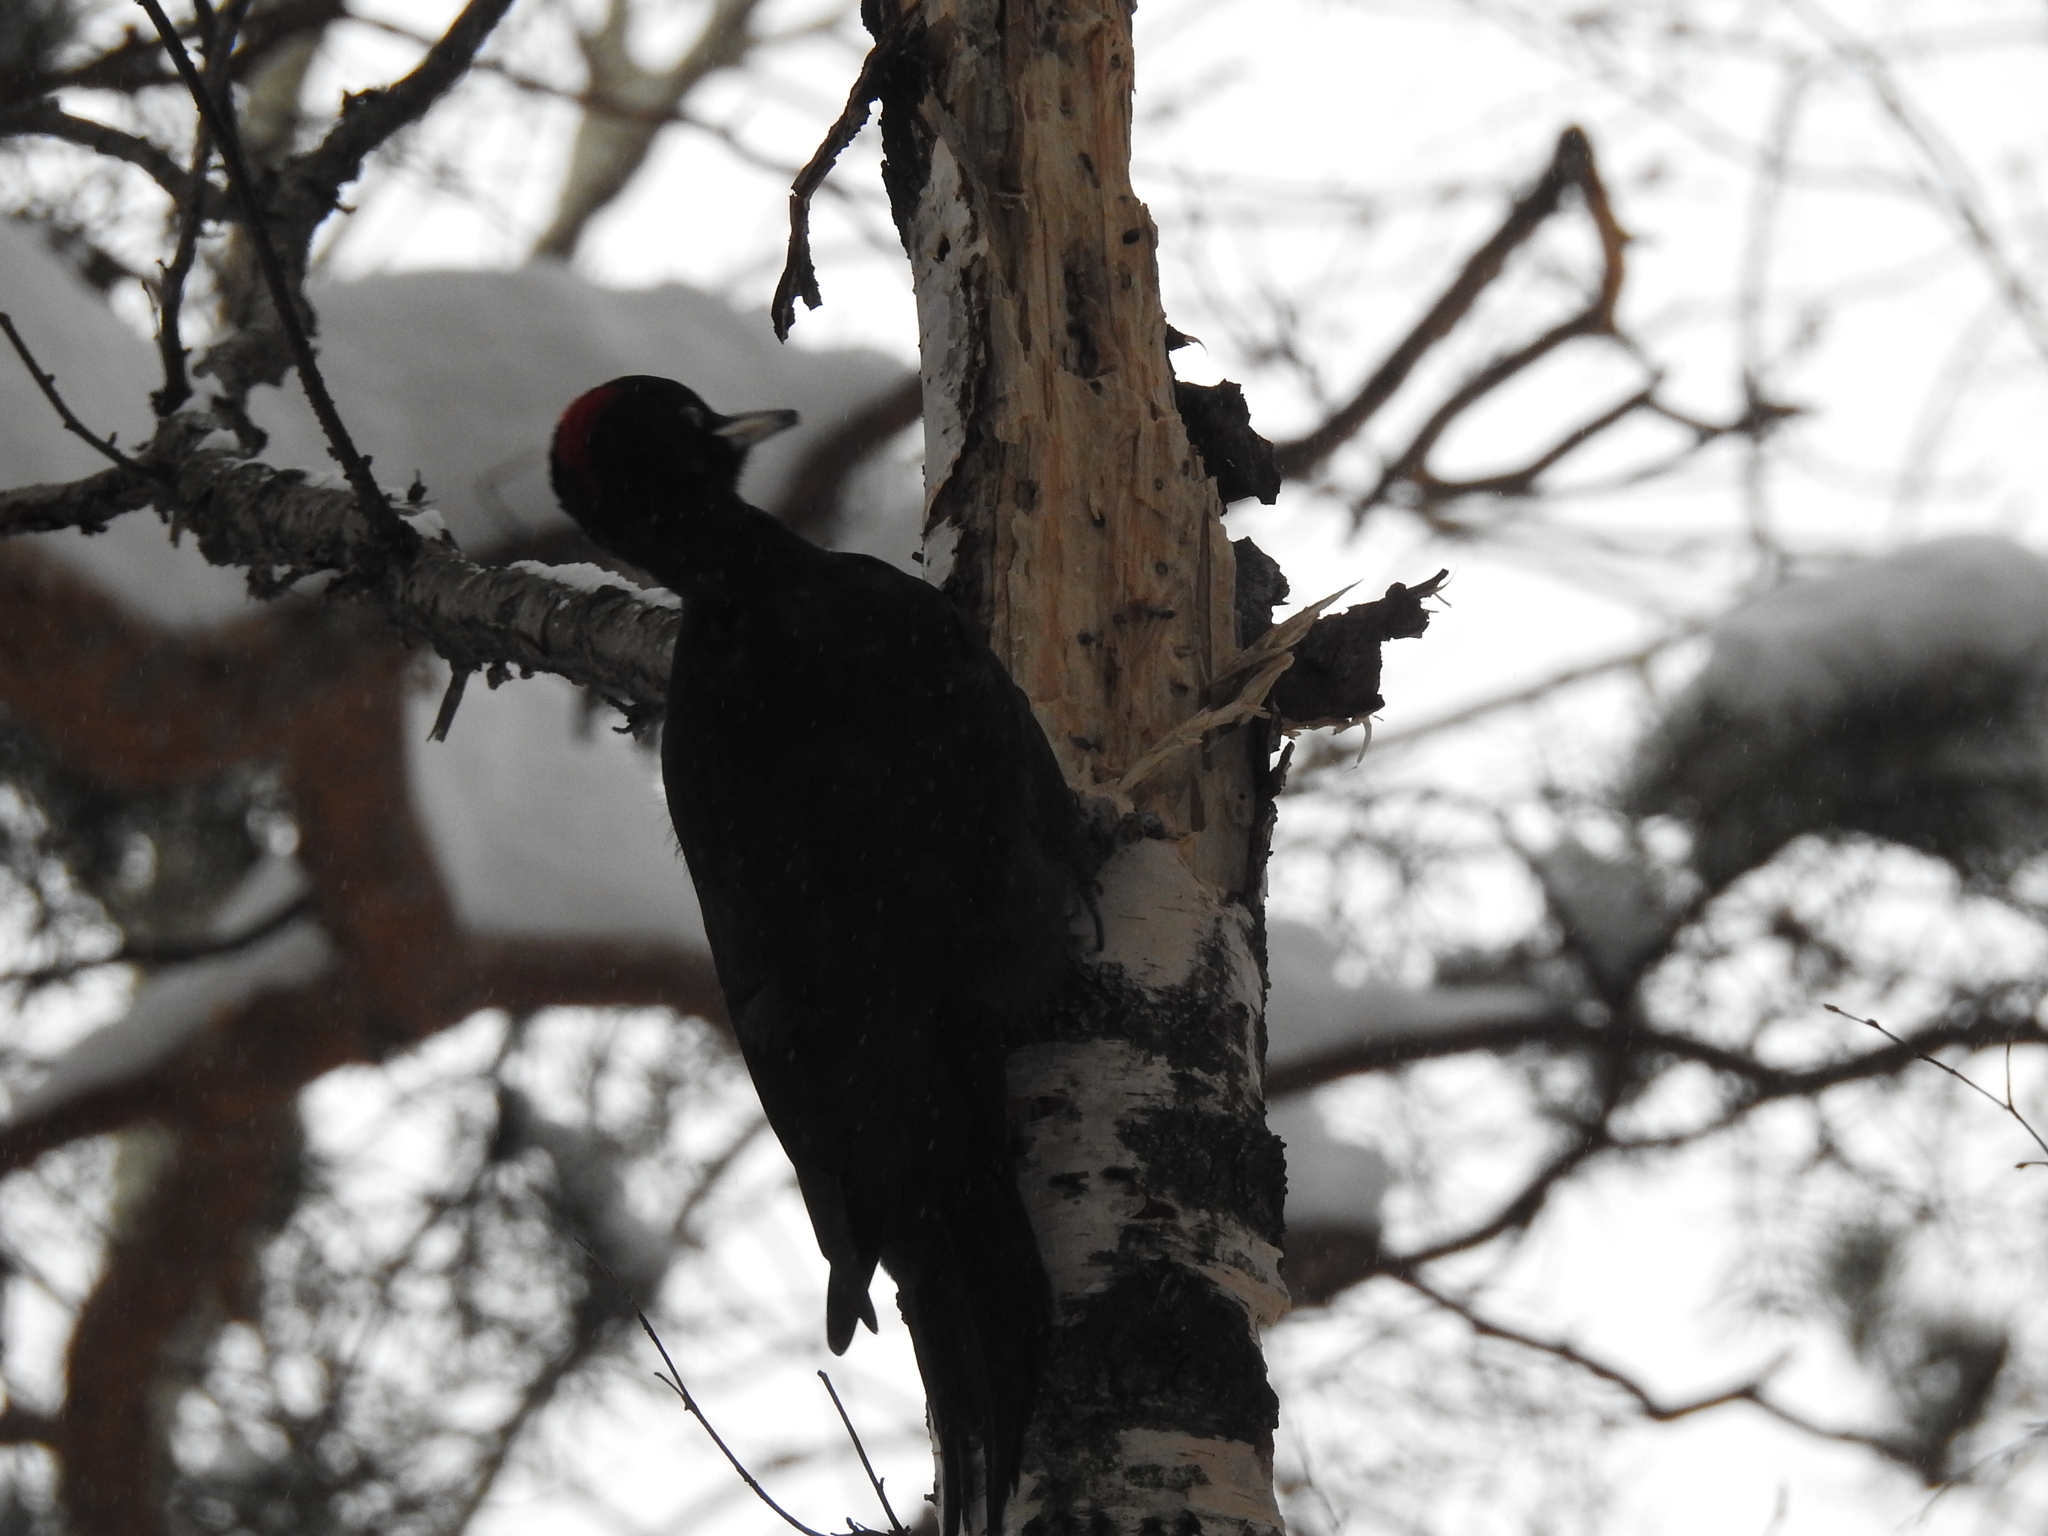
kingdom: Animalia
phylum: Chordata
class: Aves
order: Piciformes
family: Picidae
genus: Dryocopus
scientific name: Dryocopus martius
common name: Black woodpecker
